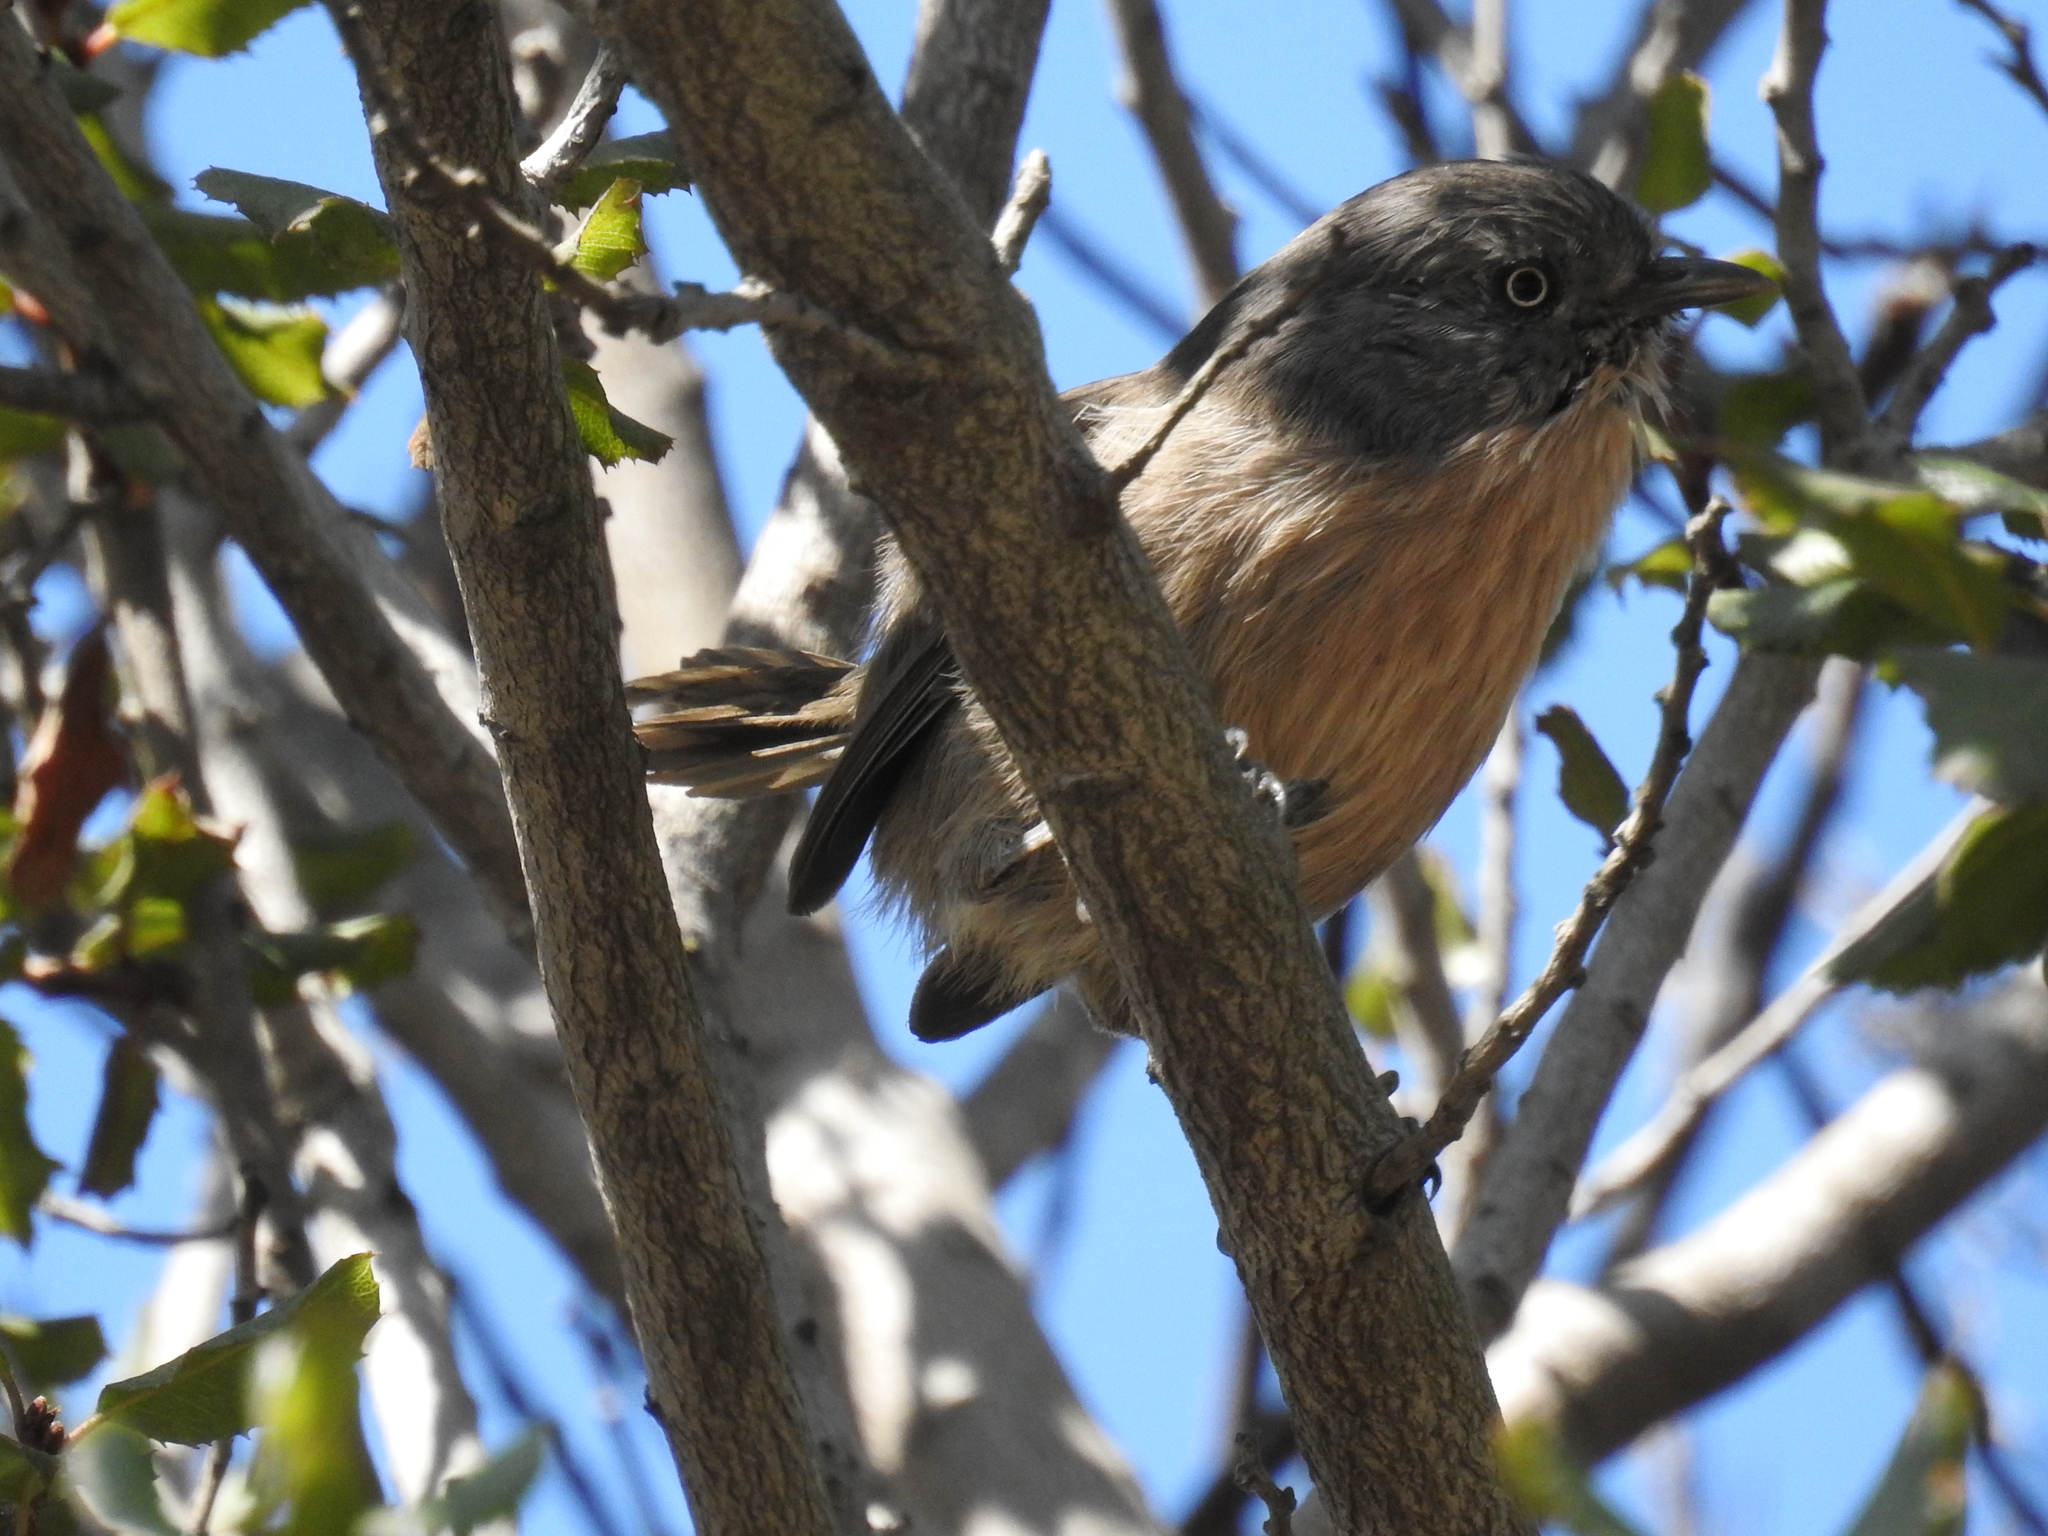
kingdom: Animalia
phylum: Chordata
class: Aves
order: Passeriformes
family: Sylviidae
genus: Chamaea
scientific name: Chamaea fasciata
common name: Wrentit
